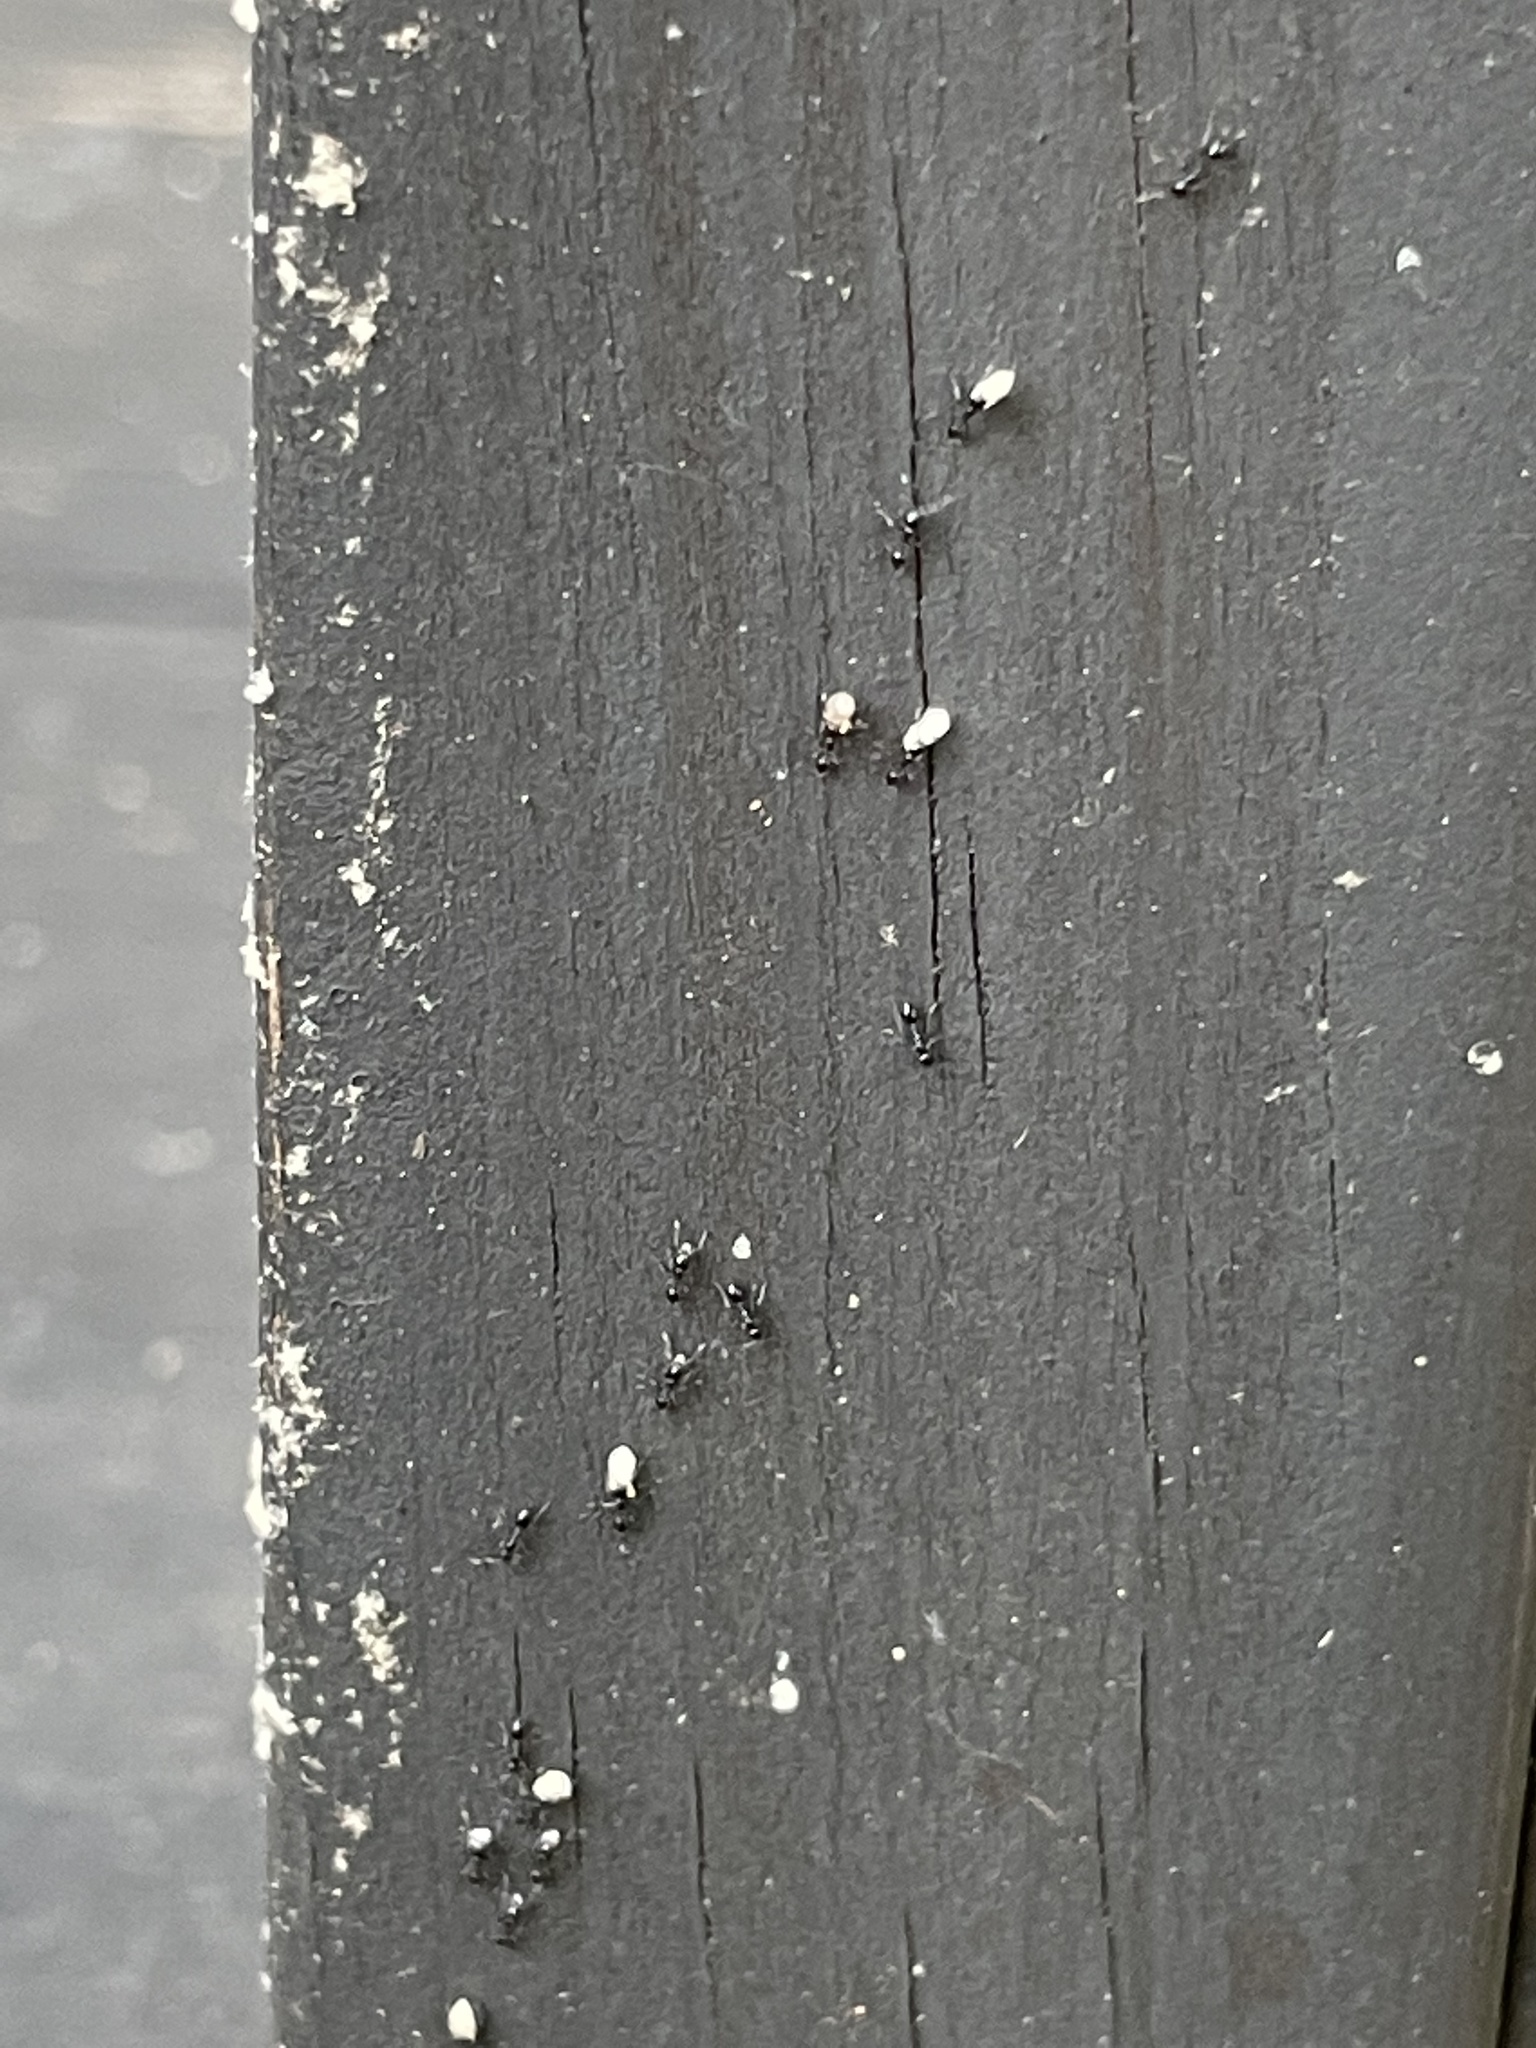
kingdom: Animalia
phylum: Arthropoda
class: Insecta
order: Hymenoptera
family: Formicidae
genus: Brachymyrmex
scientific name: Brachymyrmex patagonicus
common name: Dark rover ant
